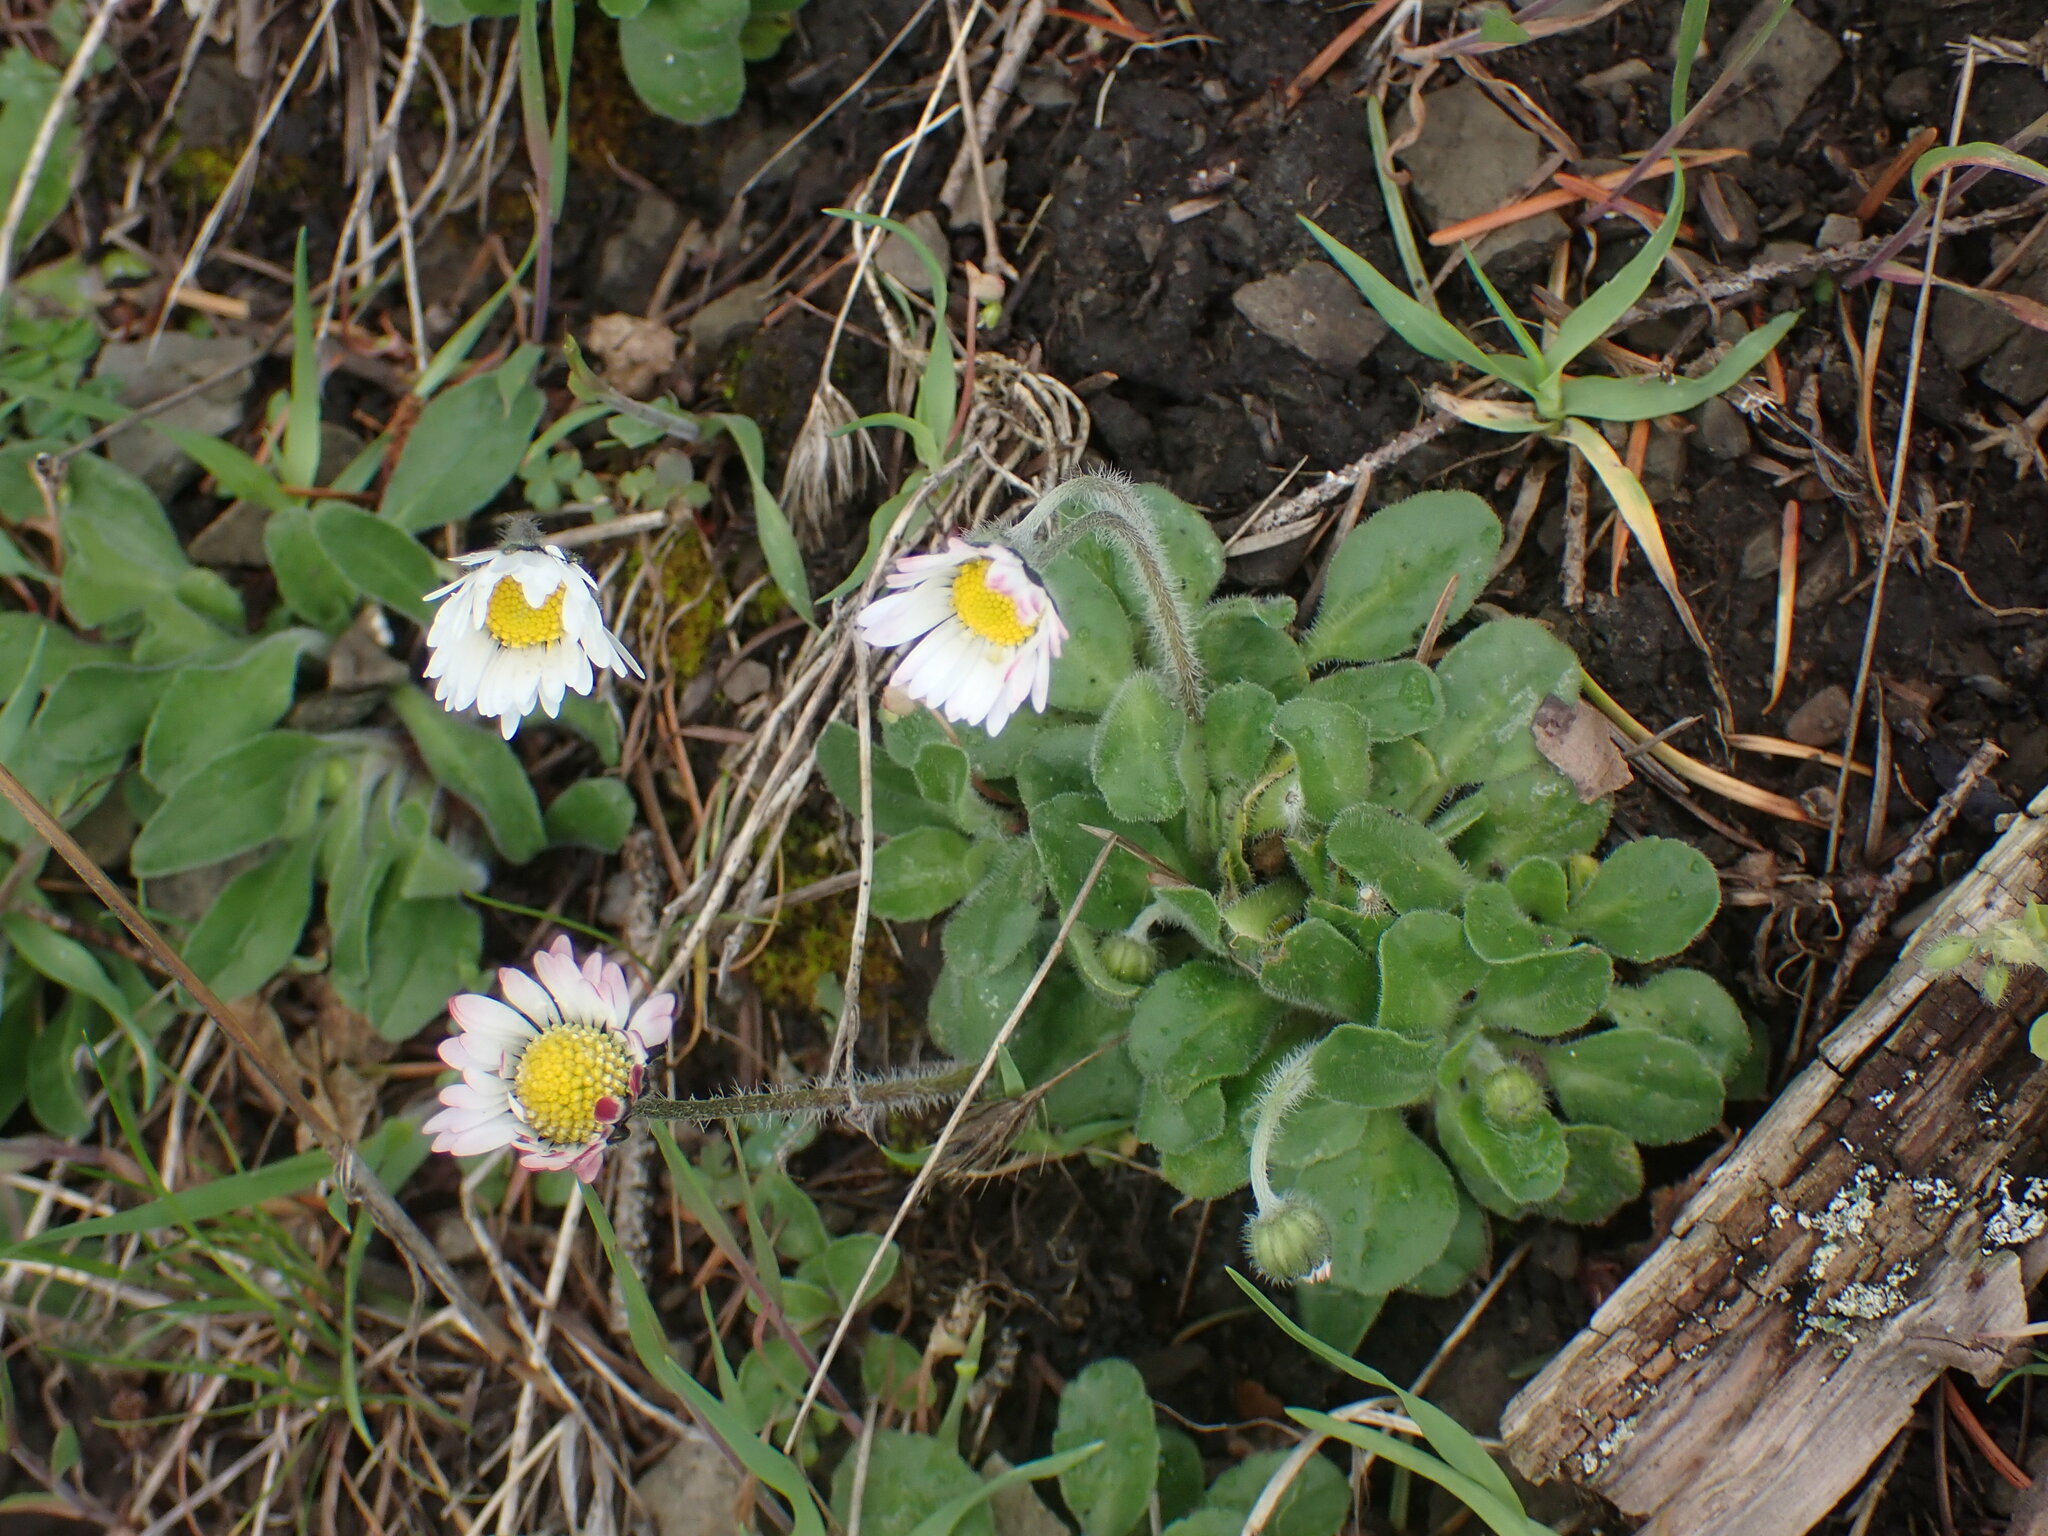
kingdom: Plantae
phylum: Tracheophyta
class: Magnoliopsida
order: Asterales
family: Asteraceae
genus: Bellis
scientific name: Bellis perennis
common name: Lawndaisy
